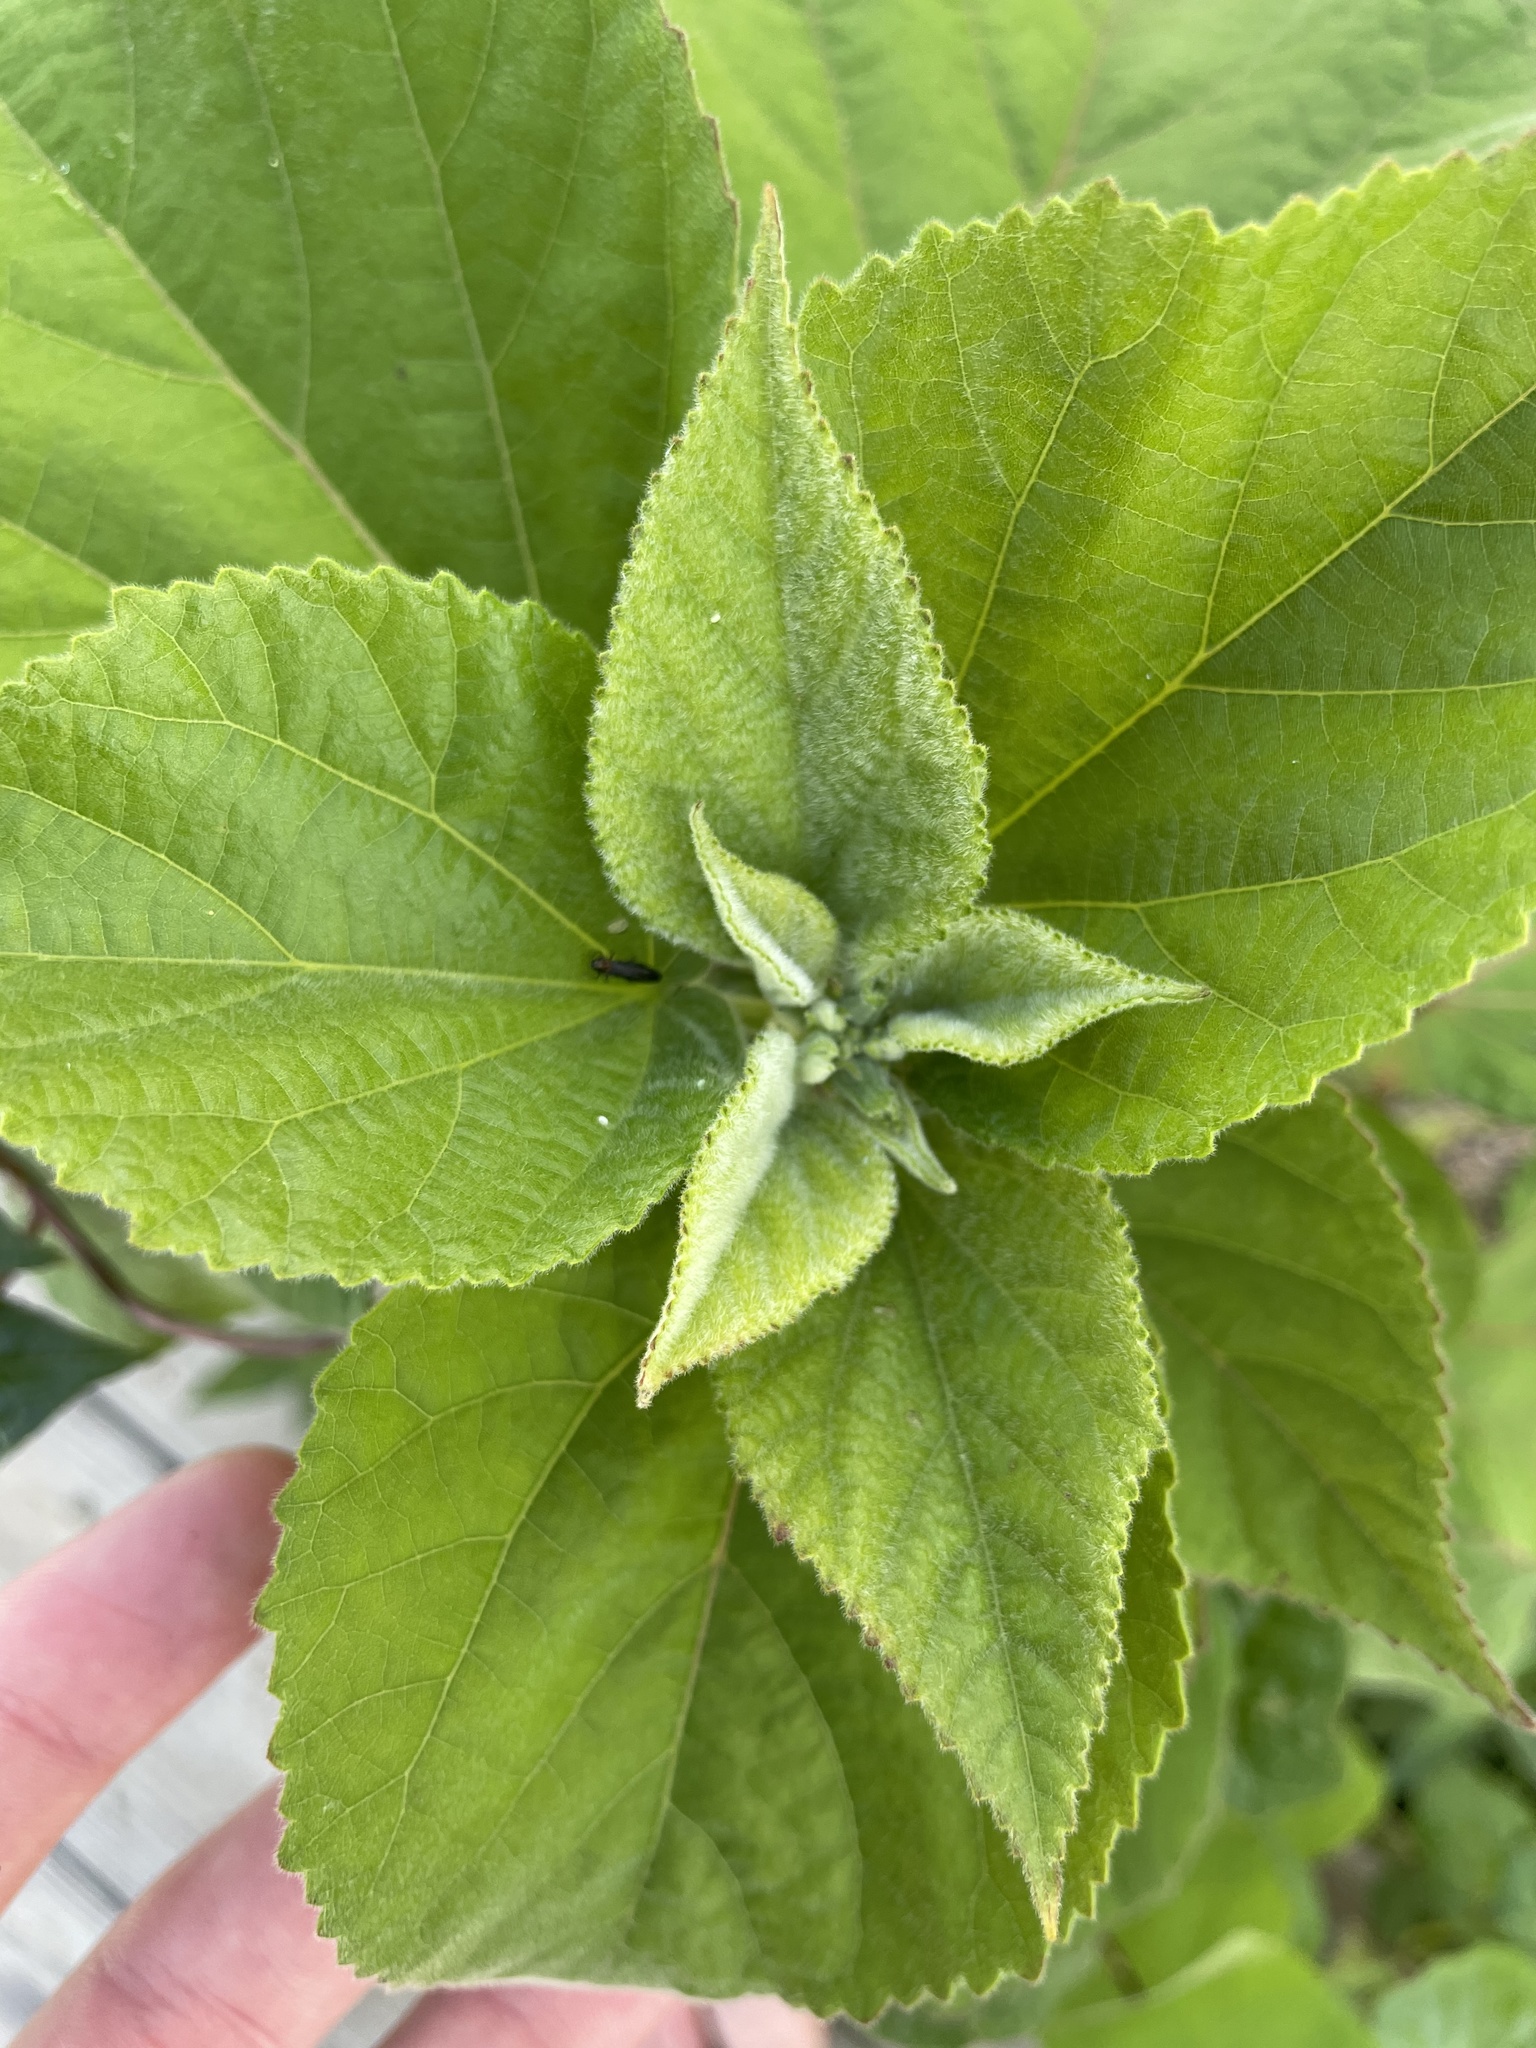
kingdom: Plantae
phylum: Tracheophyta
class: Magnoliopsida
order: Malvales
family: Malvaceae
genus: Hibiscus
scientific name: Hibiscus moscheutos
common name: Common rose-mallow
